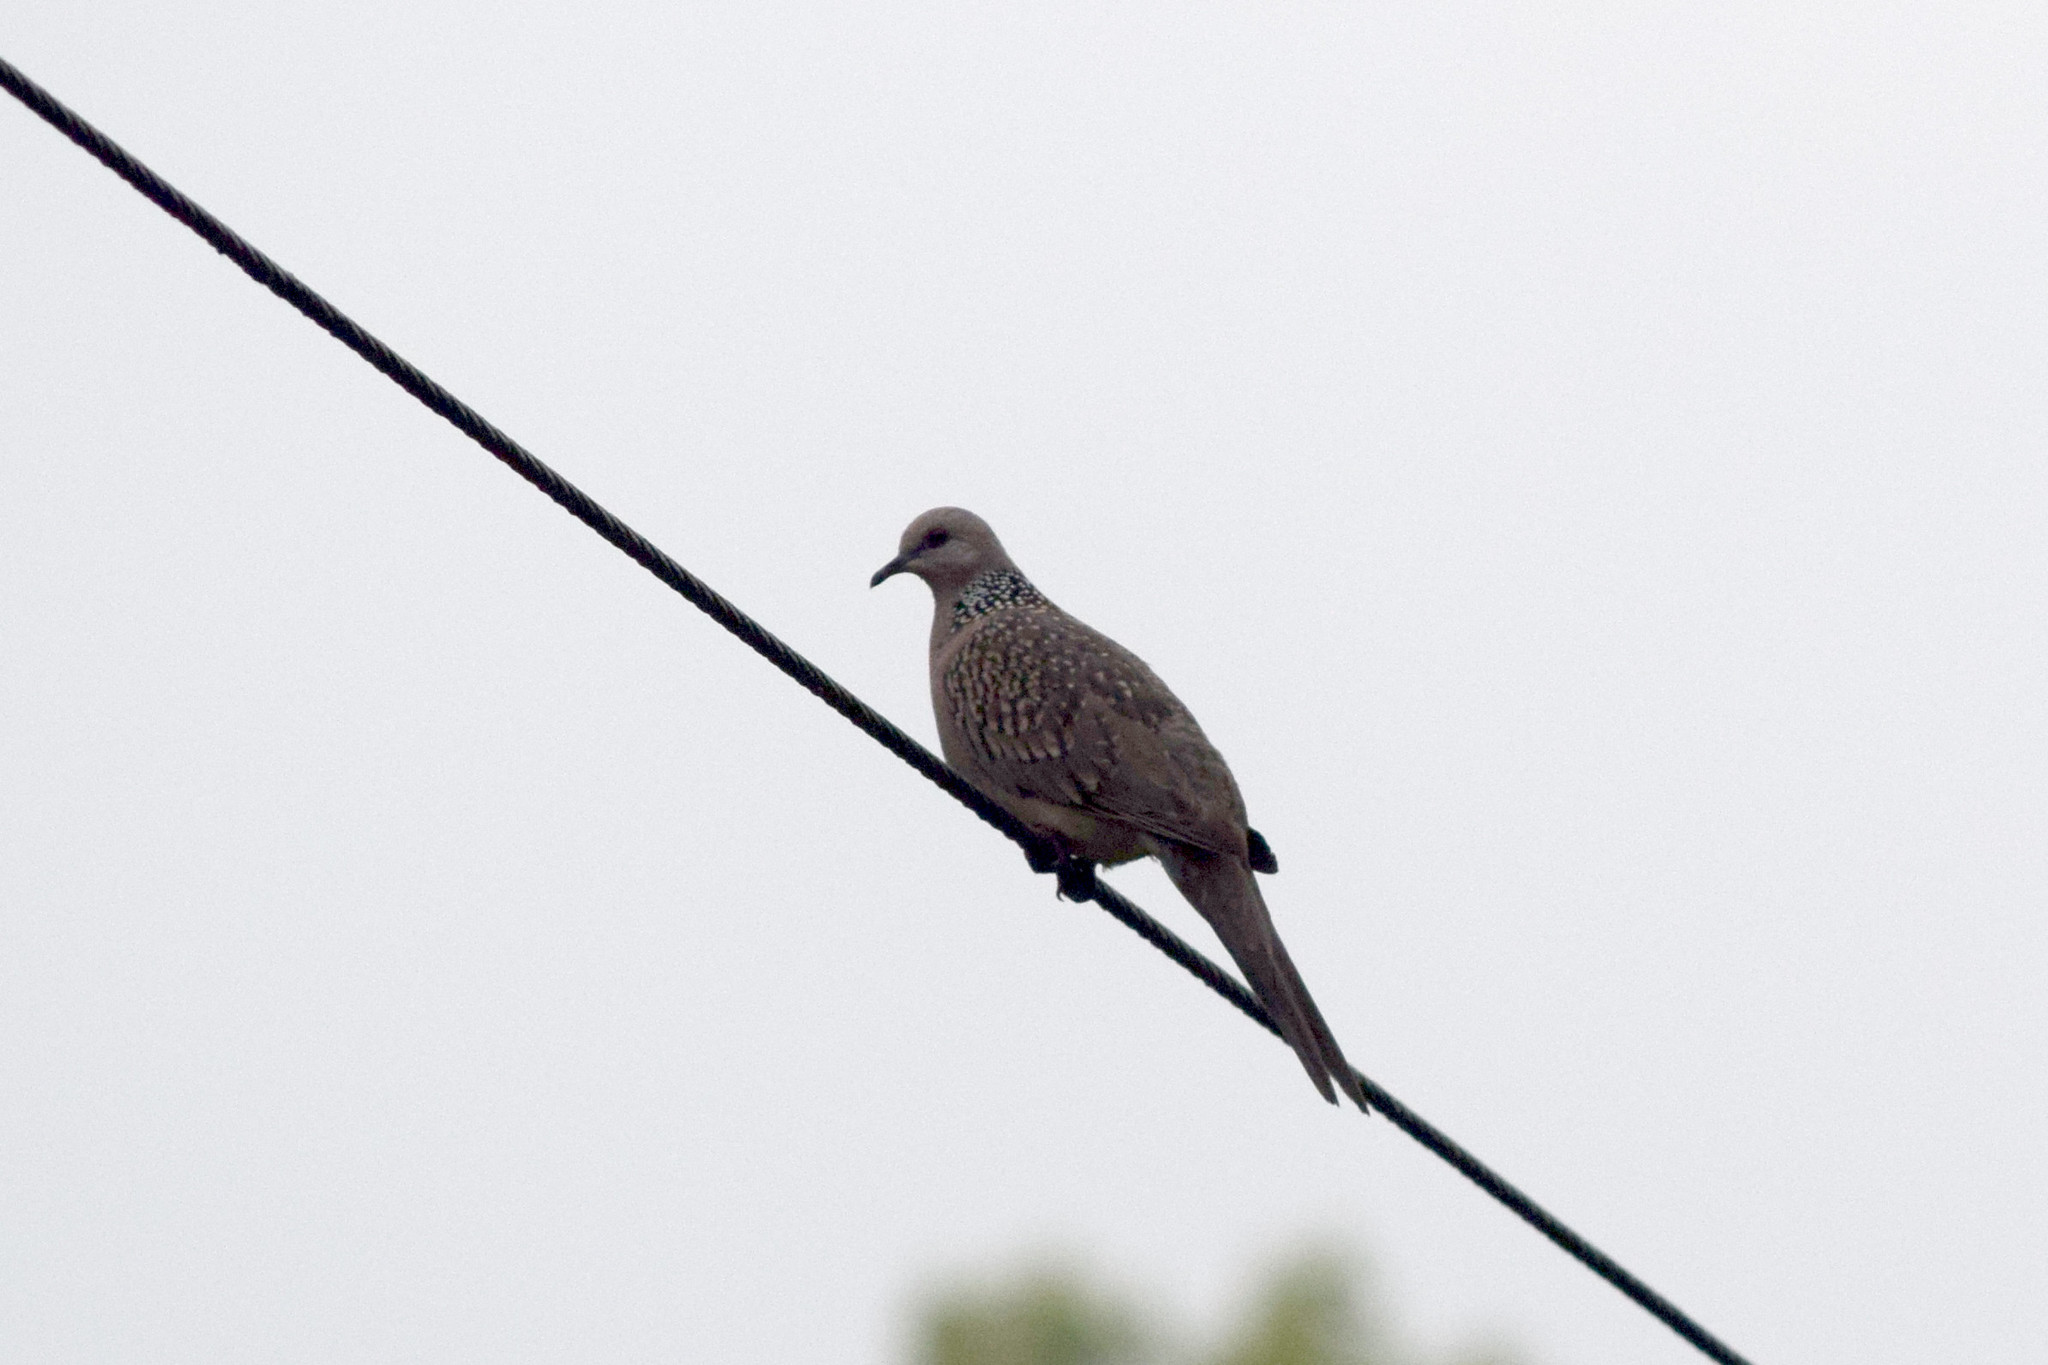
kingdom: Animalia
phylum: Chordata
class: Aves
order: Columbiformes
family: Columbidae
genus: Spilopelia
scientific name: Spilopelia chinensis
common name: Spotted dove
